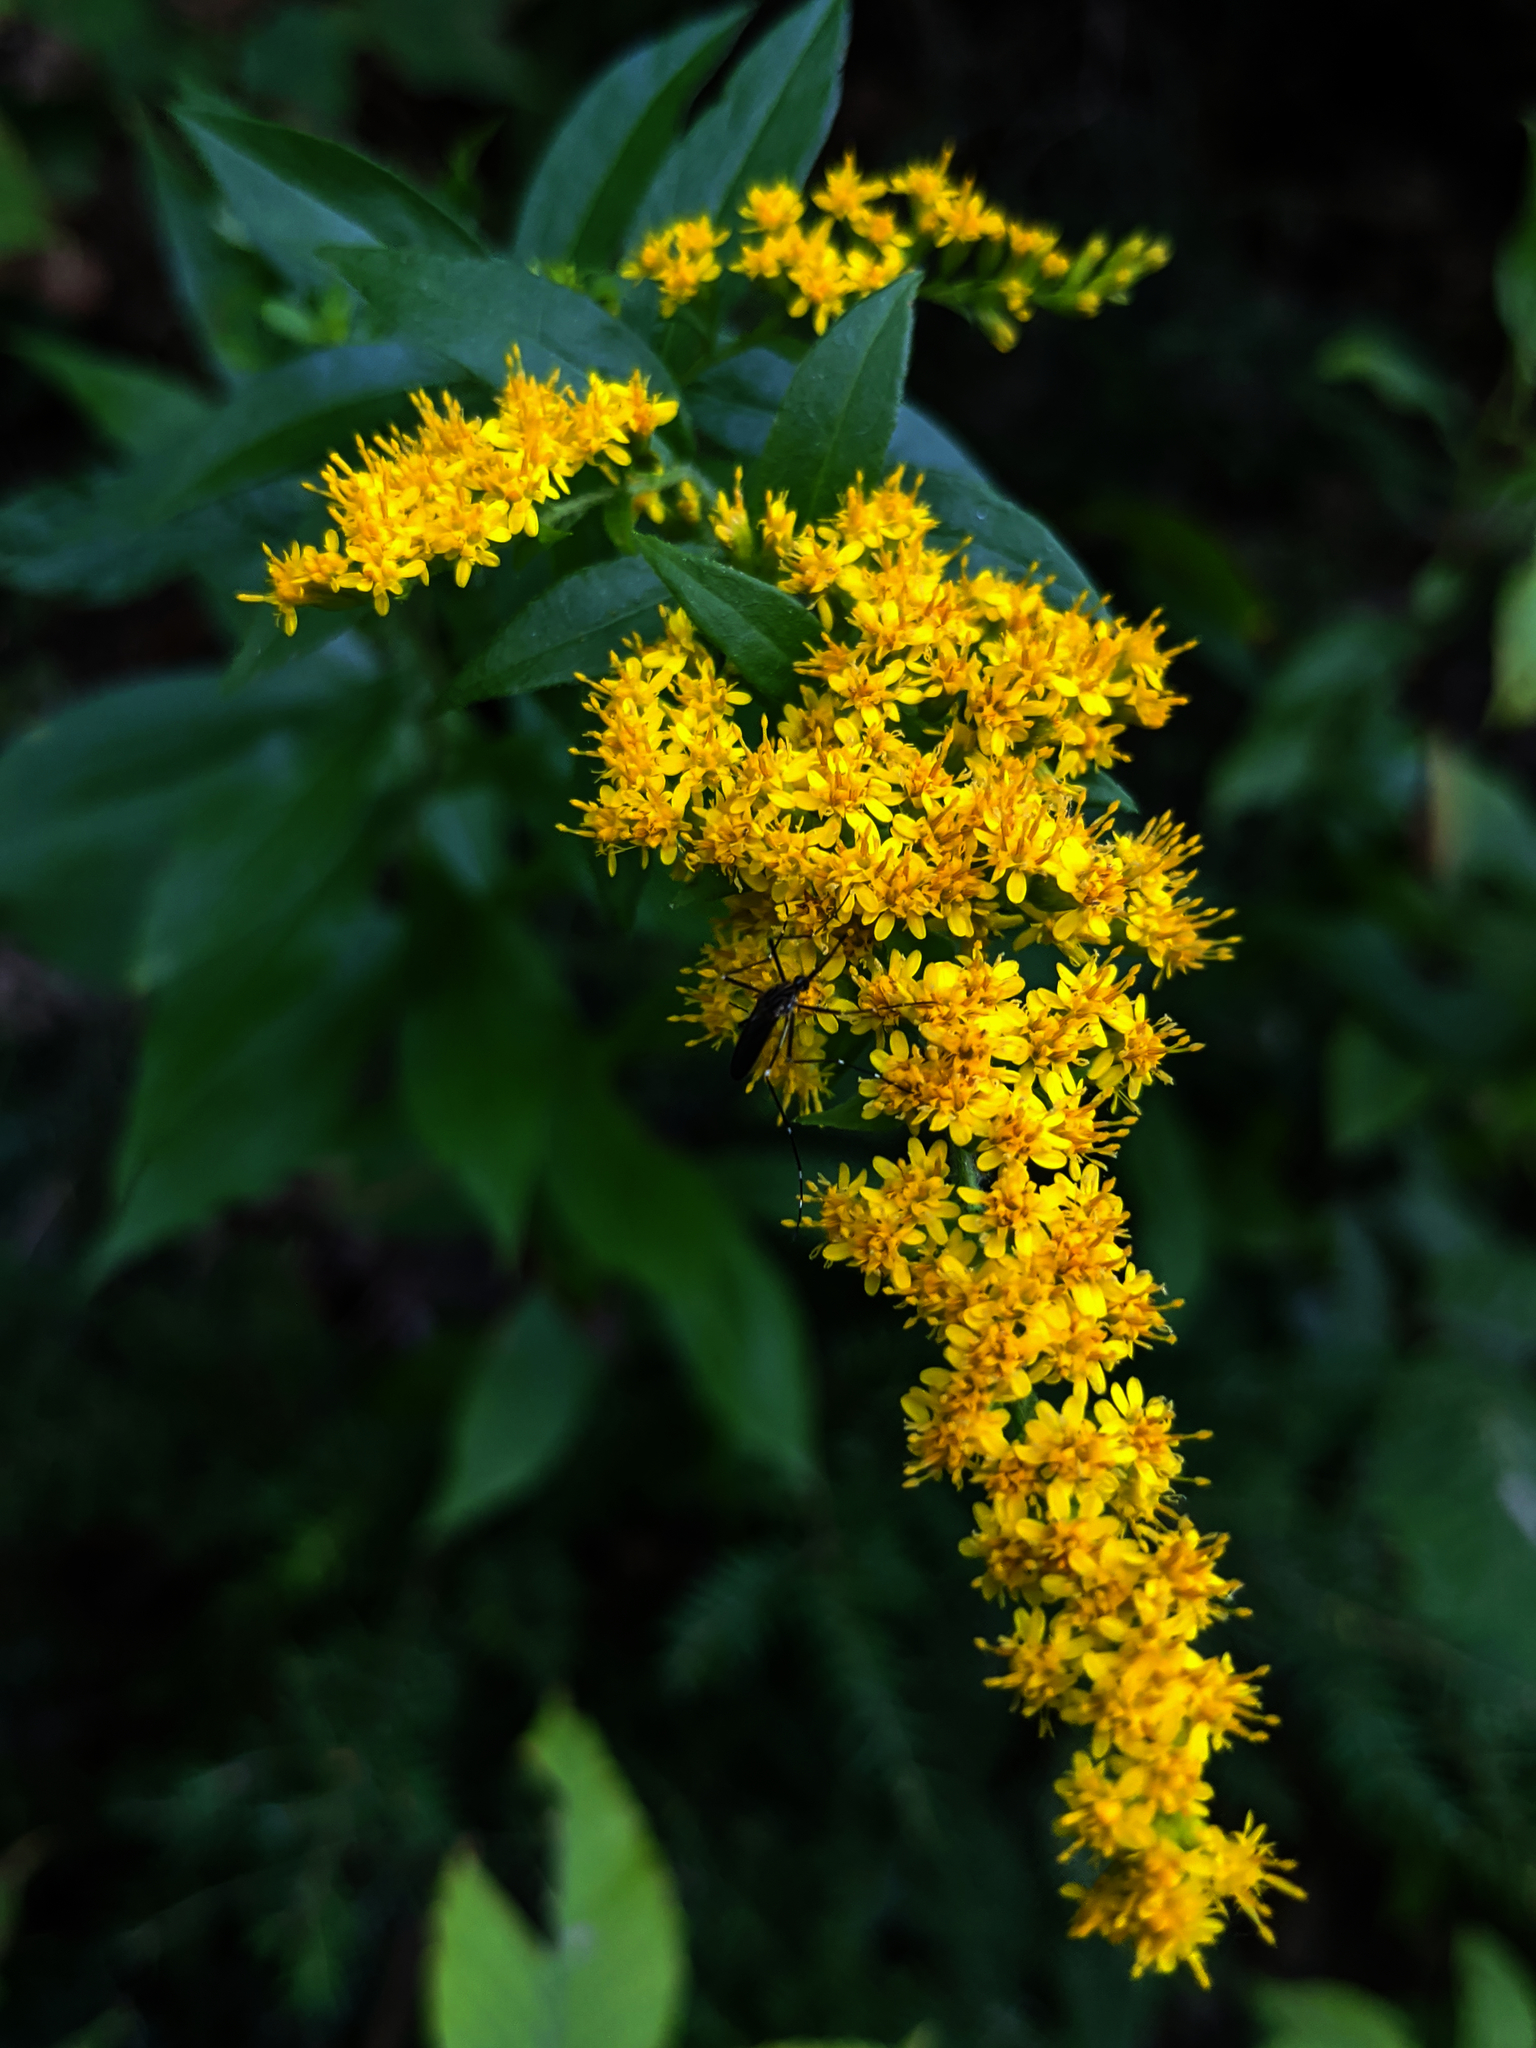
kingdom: Animalia
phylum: Arthropoda
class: Insecta
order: Diptera
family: Culicidae
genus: Aedes
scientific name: Aedes japonicus
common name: Asian bush mosquito
